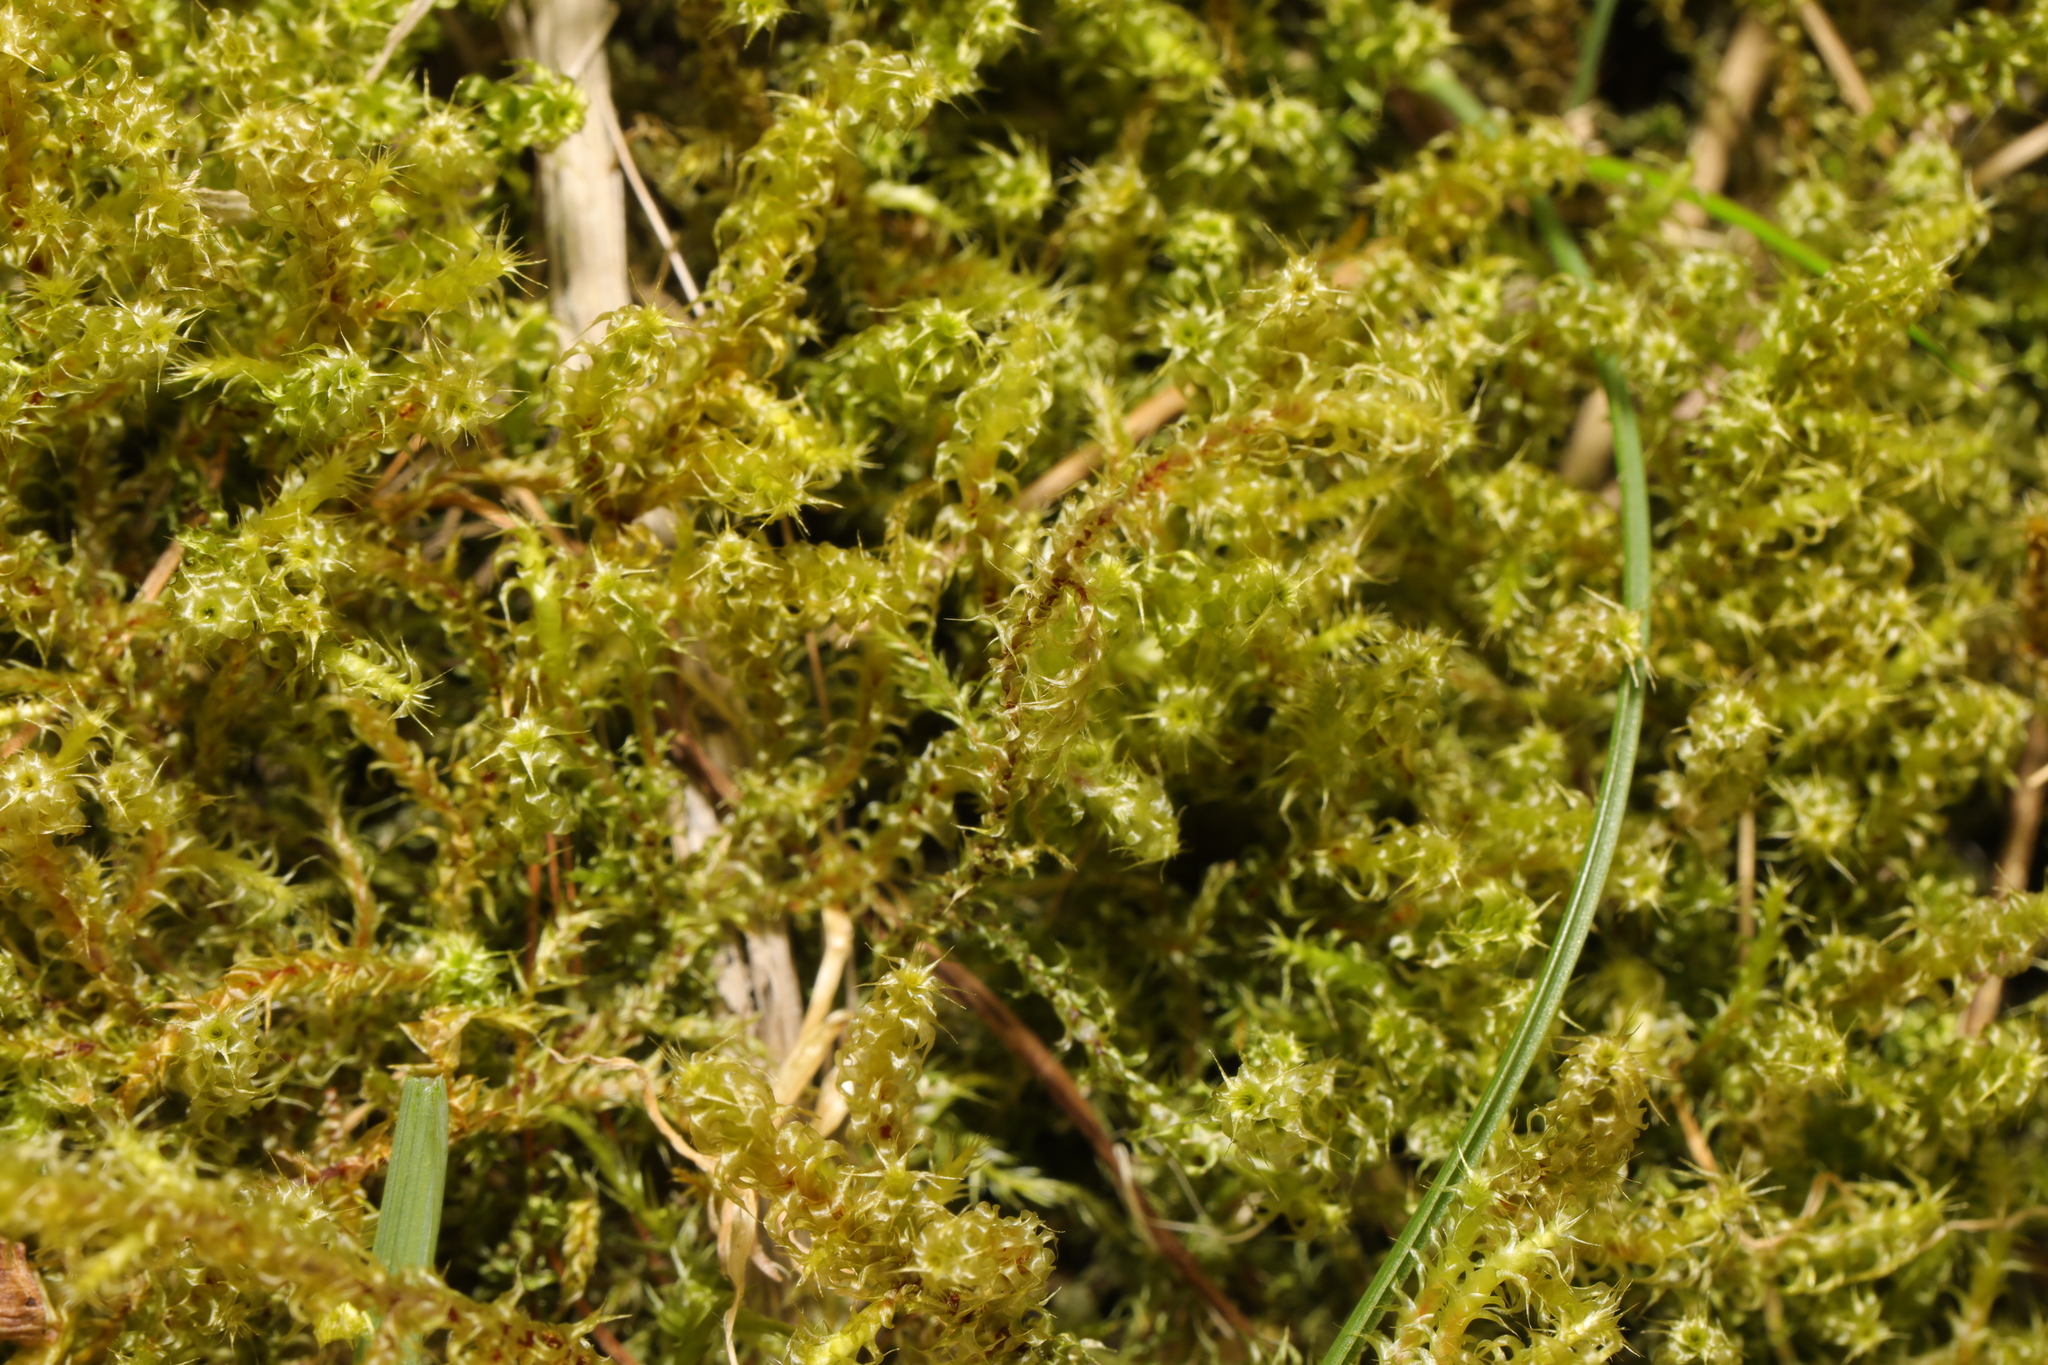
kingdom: Plantae
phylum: Bryophyta
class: Bryopsida
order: Hypnales
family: Hylocomiaceae
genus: Rhytidiadelphus
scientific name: Rhytidiadelphus squarrosus
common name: Springy turf-moss
